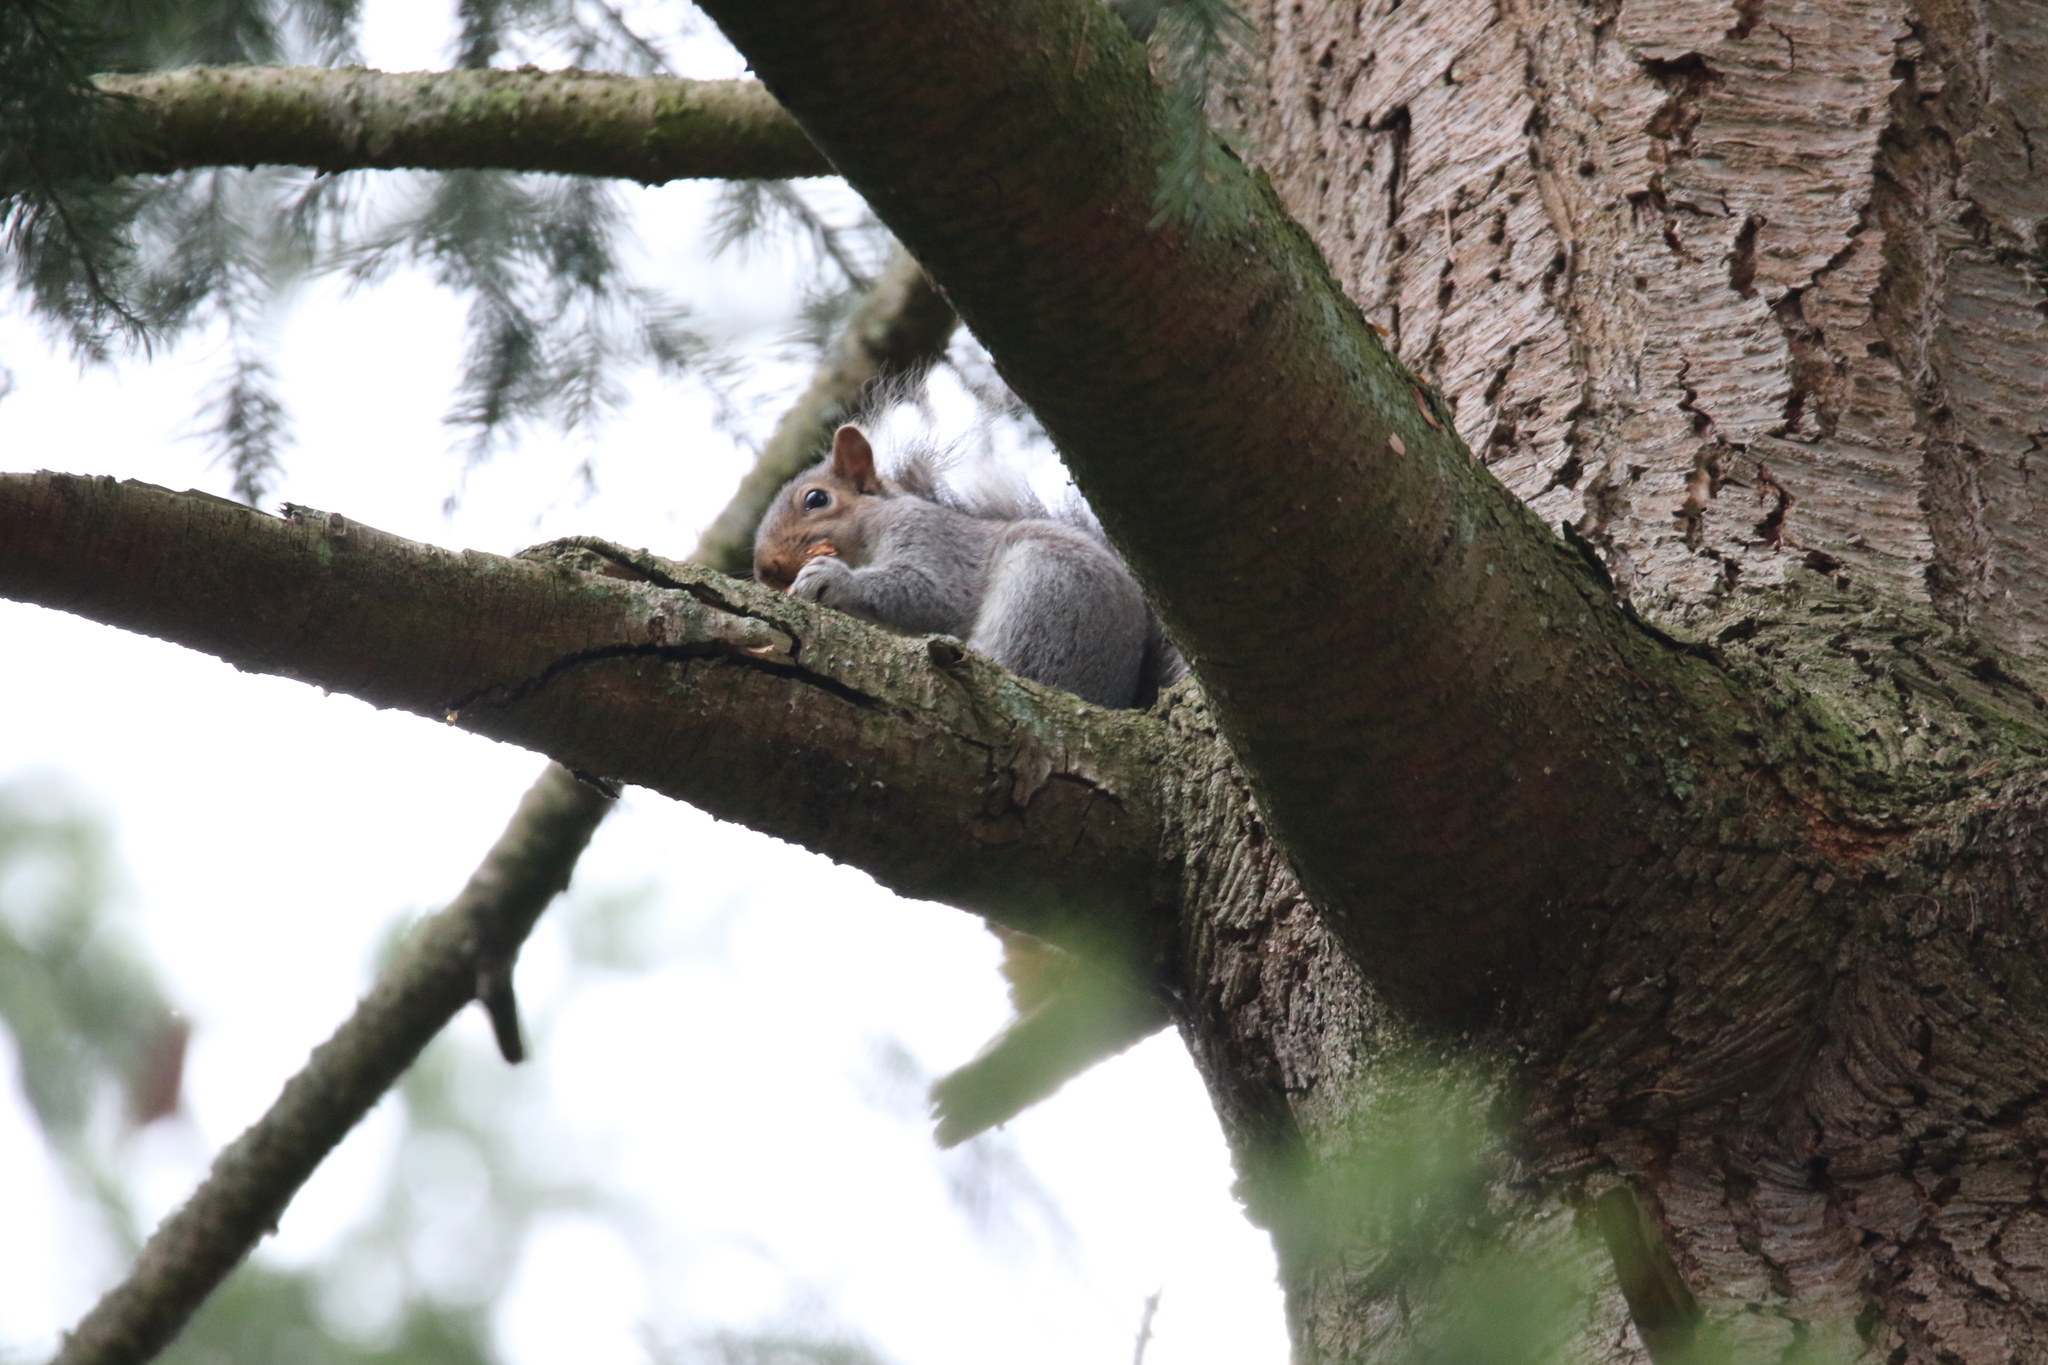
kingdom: Animalia
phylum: Chordata
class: Mammalia
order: Rodentia
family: Sciuridae
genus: Sciurus
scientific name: Sciurus carolinensis
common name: Eastern gray squirrel
